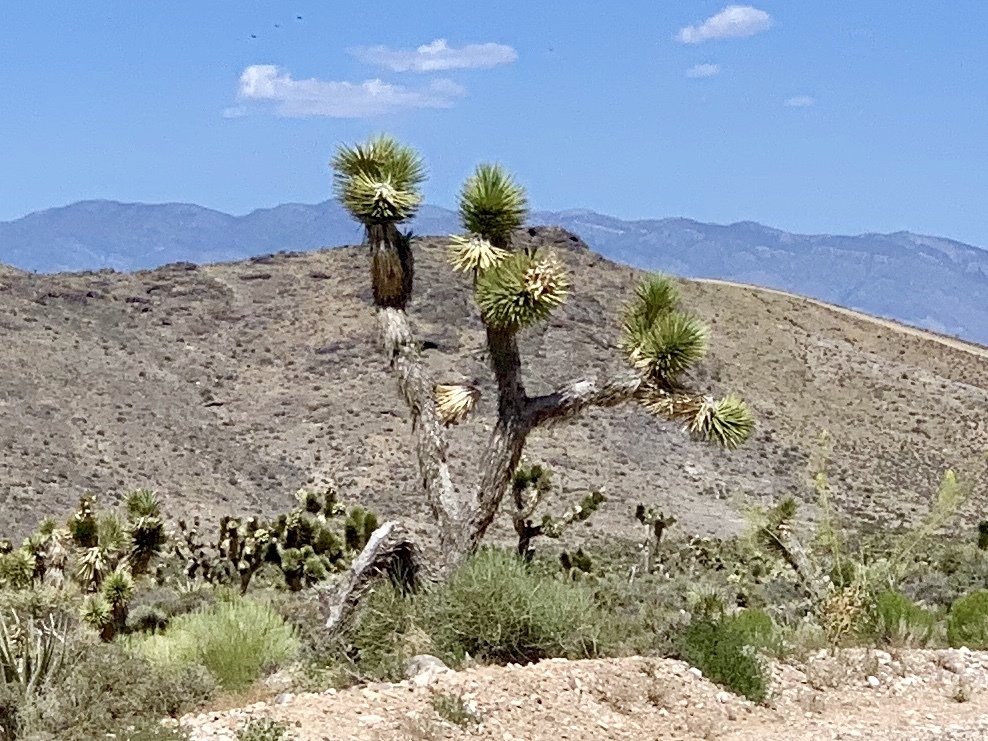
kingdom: Plantae
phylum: Tracheophyta
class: Liliopsida
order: Asparagales
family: Asparagaceae
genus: Yucca
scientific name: Yucca brevifolia
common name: Joshua tree
